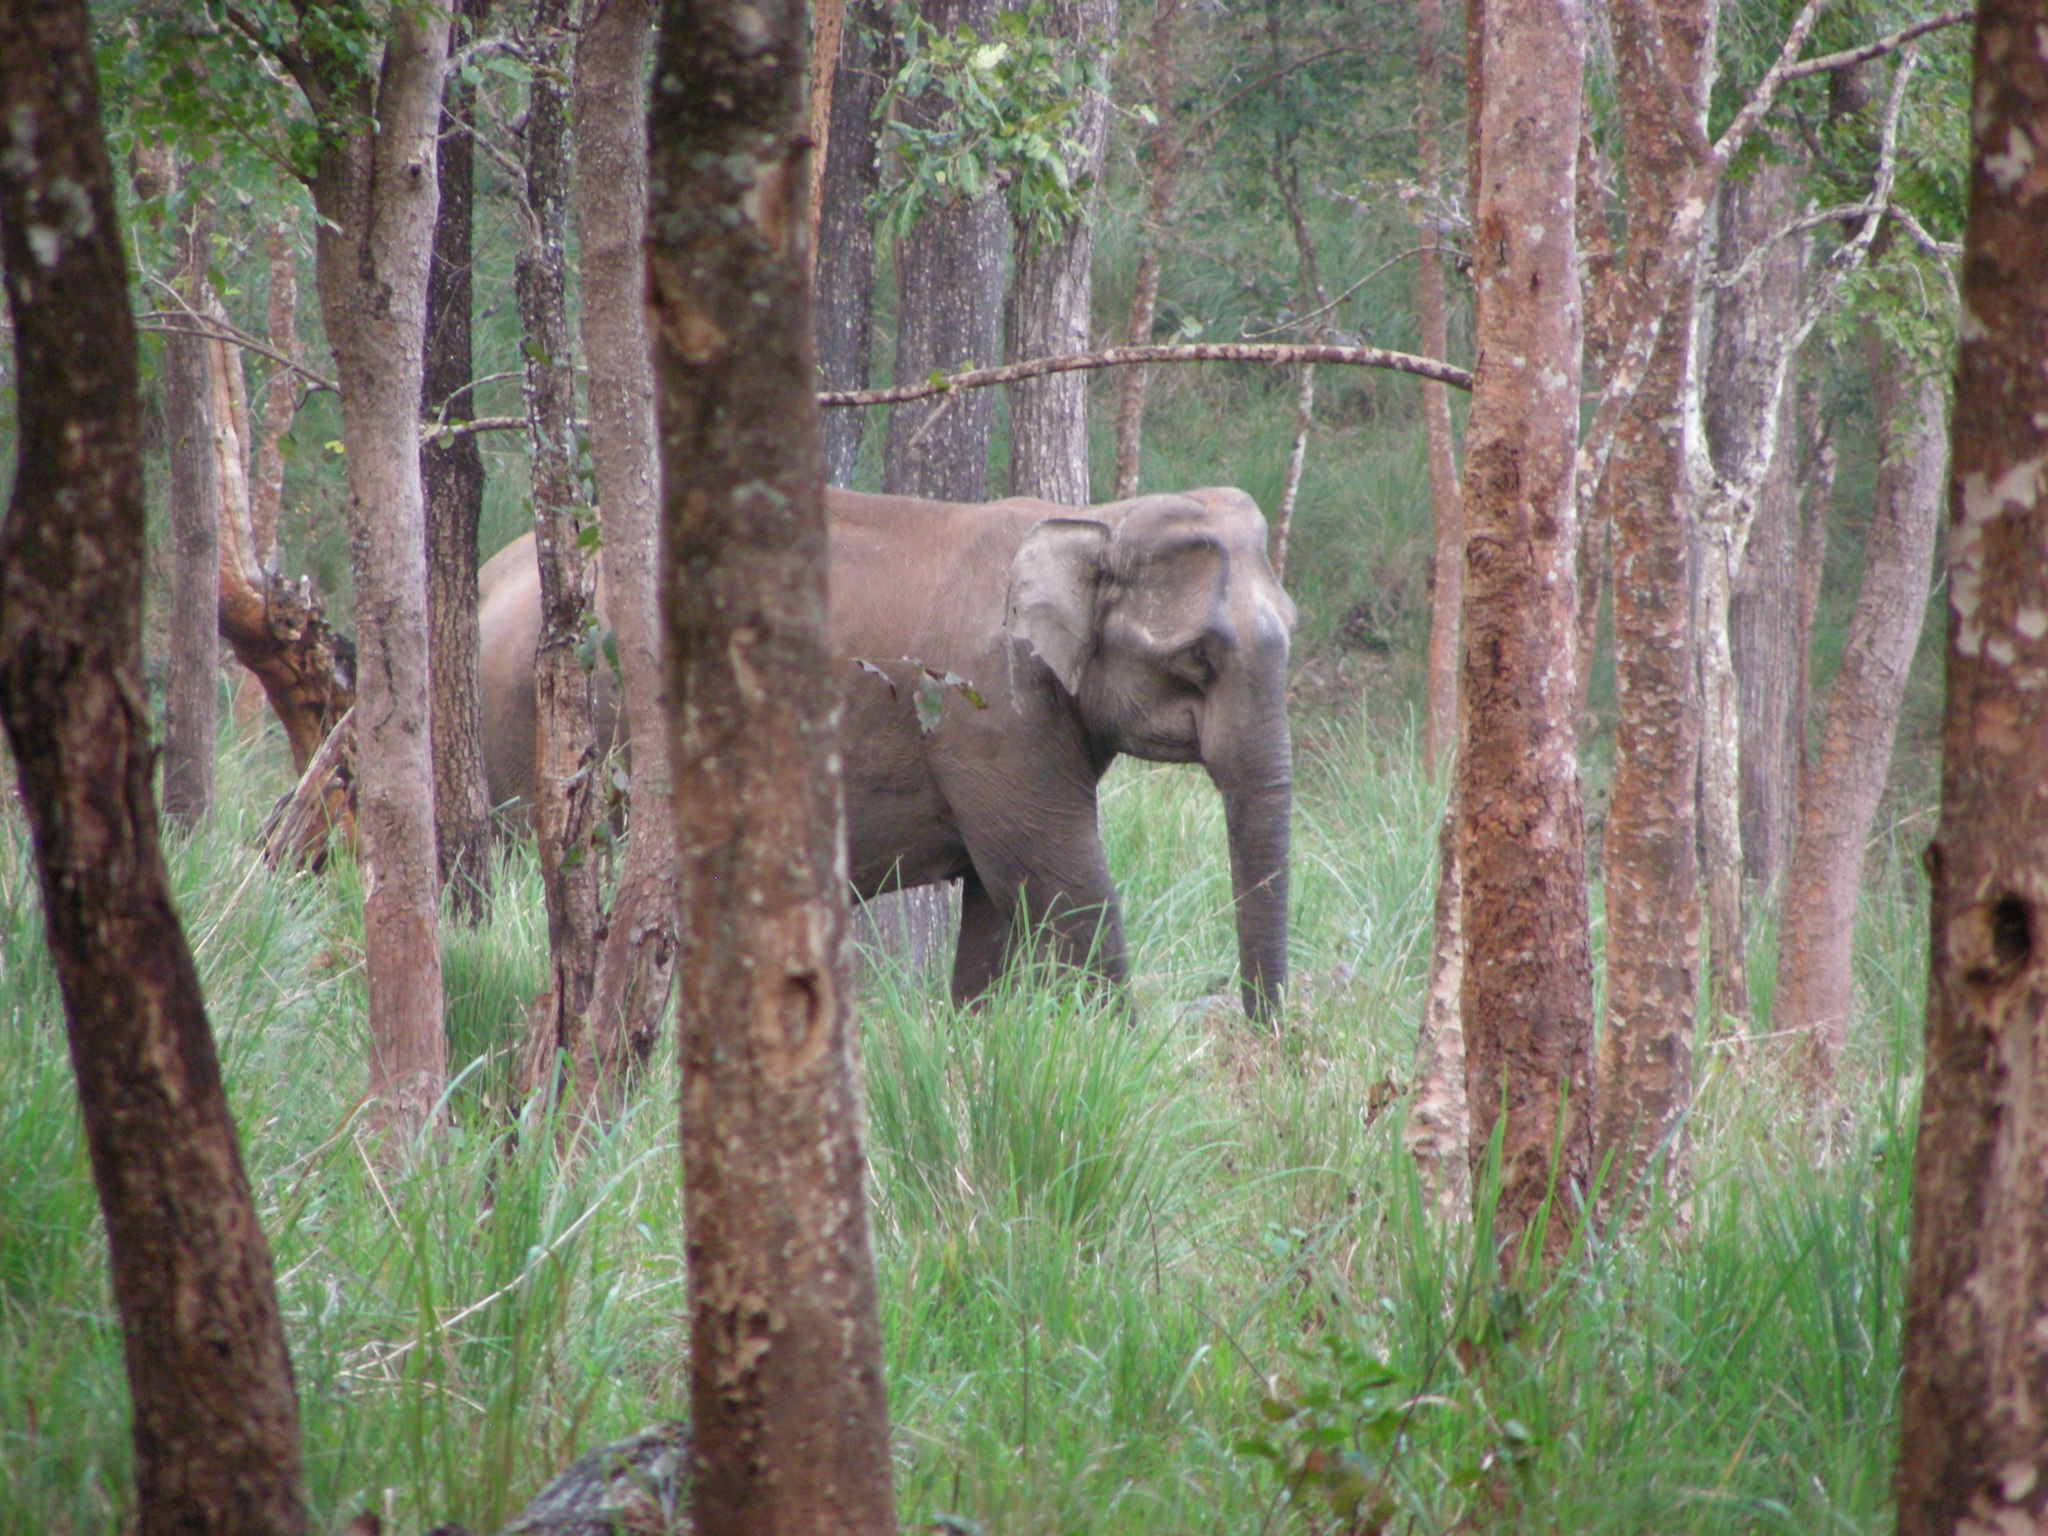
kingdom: Animalia
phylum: Chordata
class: Mammalia
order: Proboscidea
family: Elephantidae
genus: Elephas
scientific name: Elephas maximus
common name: Asian elephant
